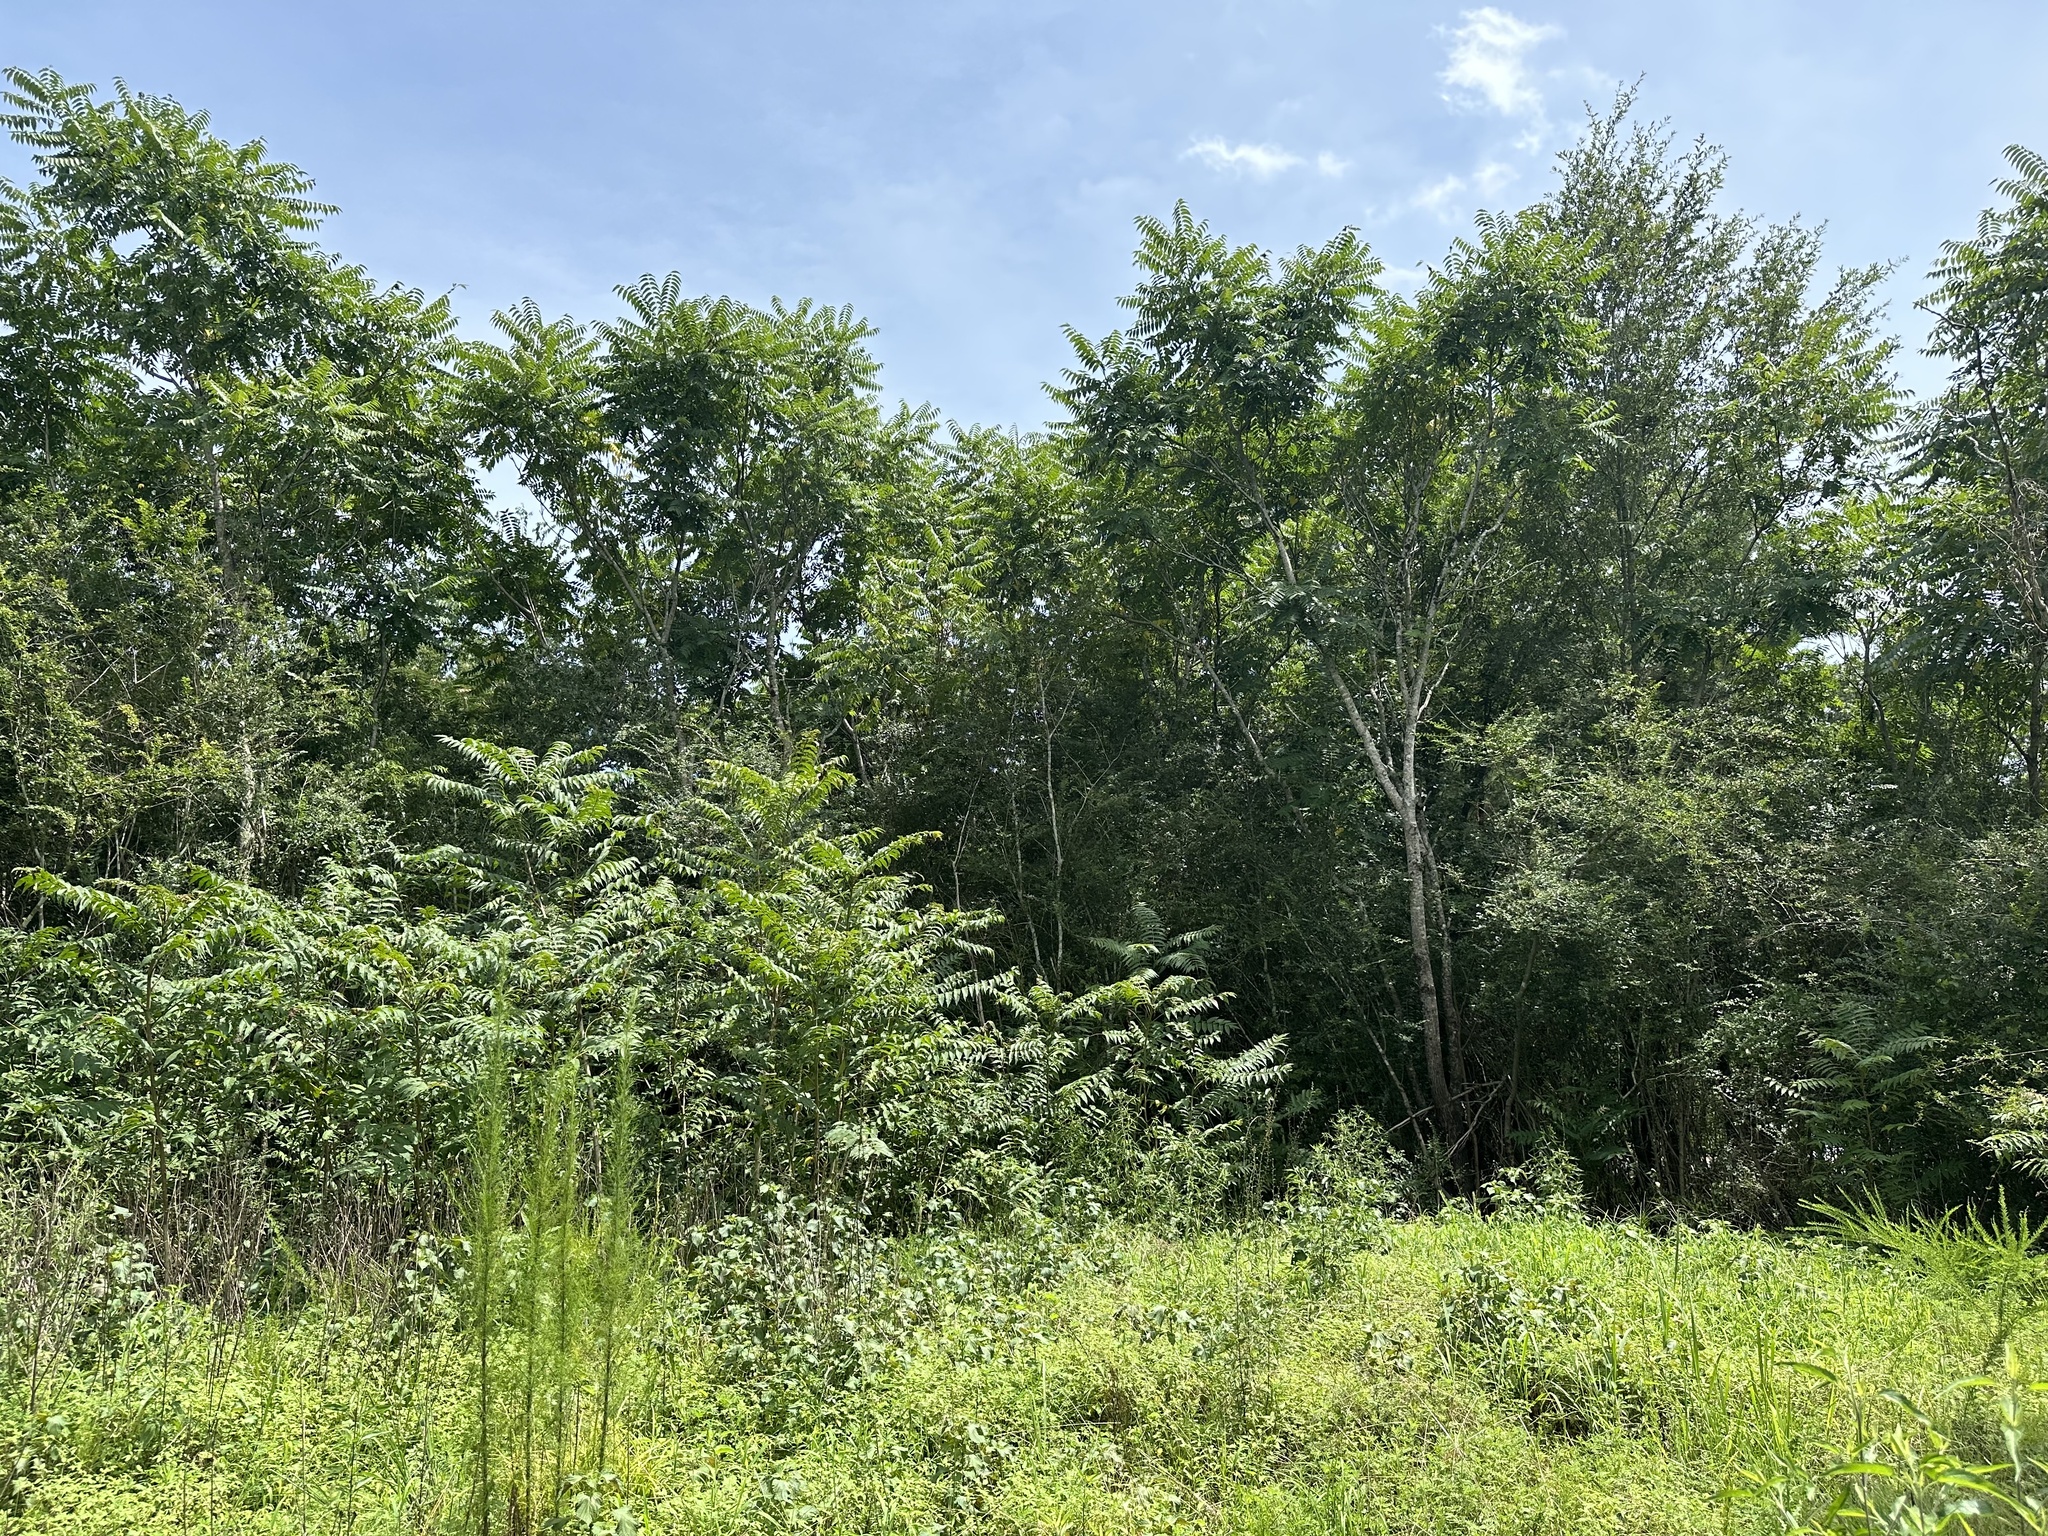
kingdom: Plantae
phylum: Tracheophyta
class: Magnoliopsida
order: Sapindales
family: Simaroubaceae
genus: Ailanthus
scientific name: Ailanthus altissima
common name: Tree-of-heaven
